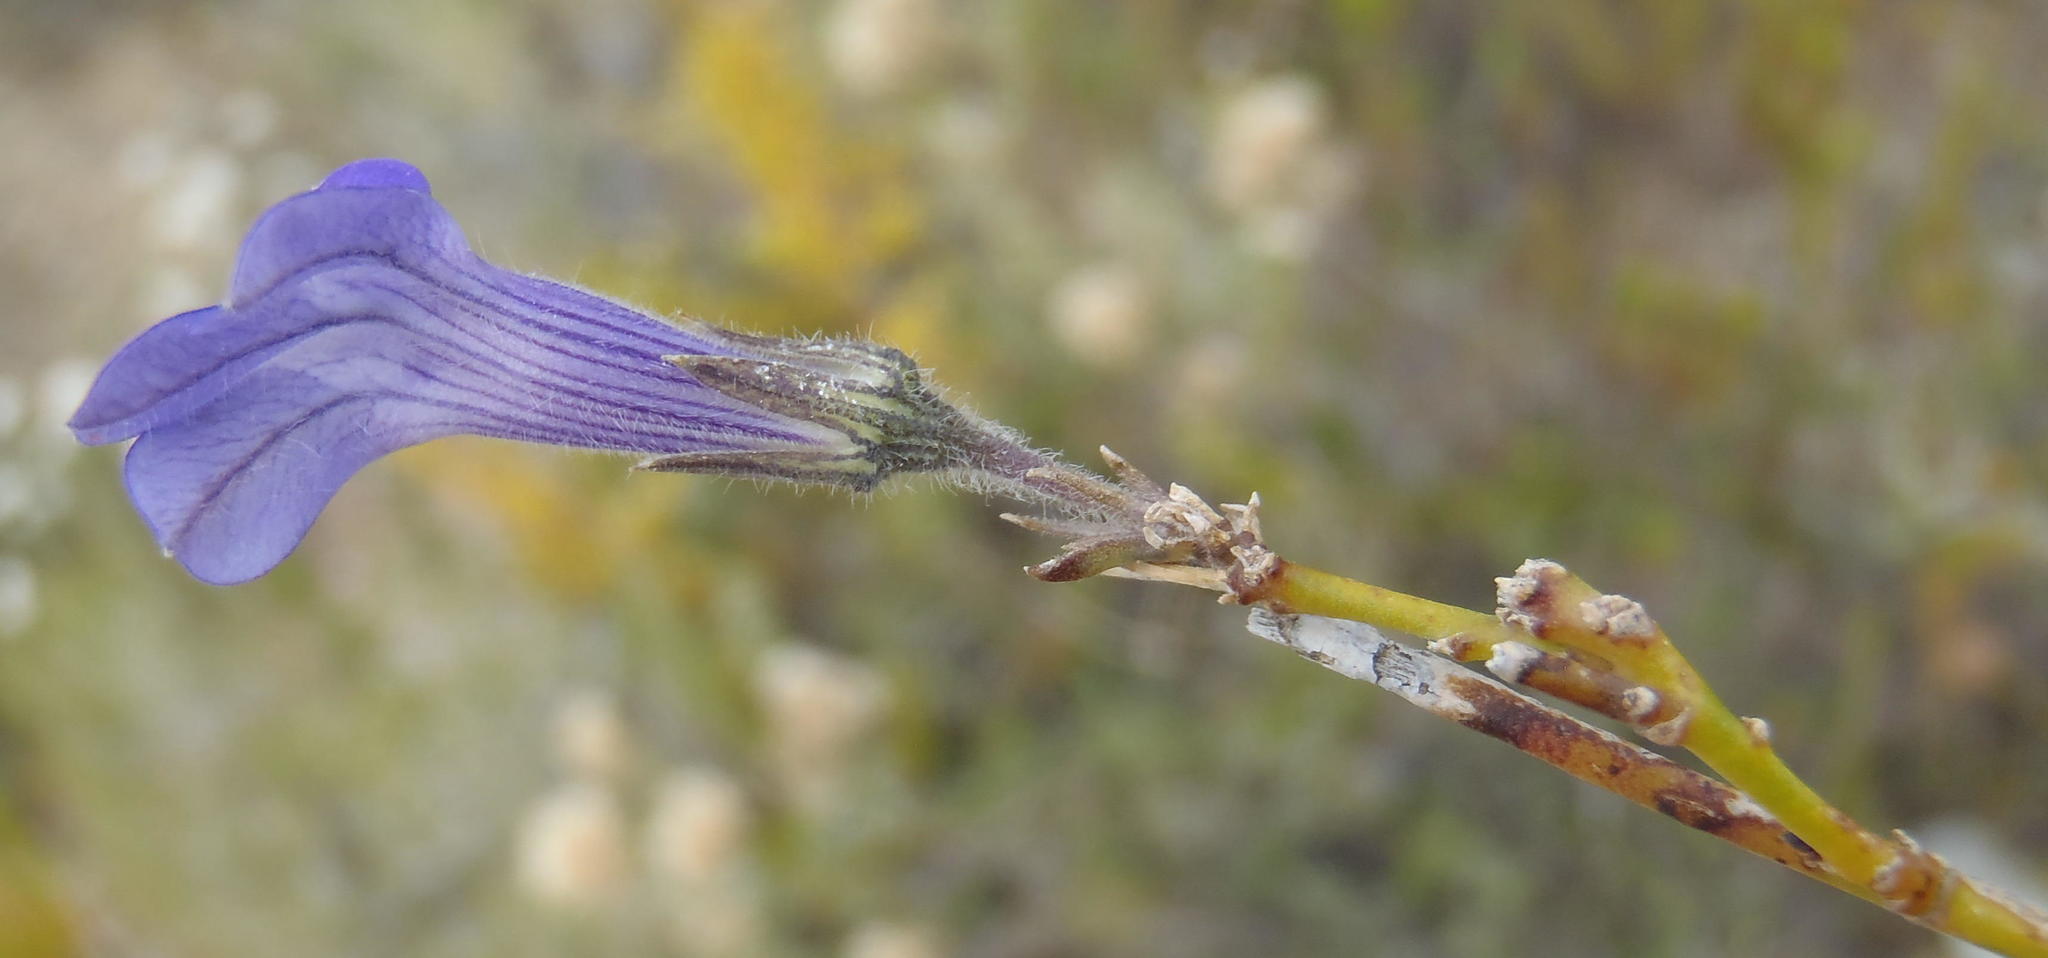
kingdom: Plantae
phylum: Tracheophyta
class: Magnoliopsida
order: Asterales
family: Campanulaceae
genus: Lobelia
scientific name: Lobelia linearis
